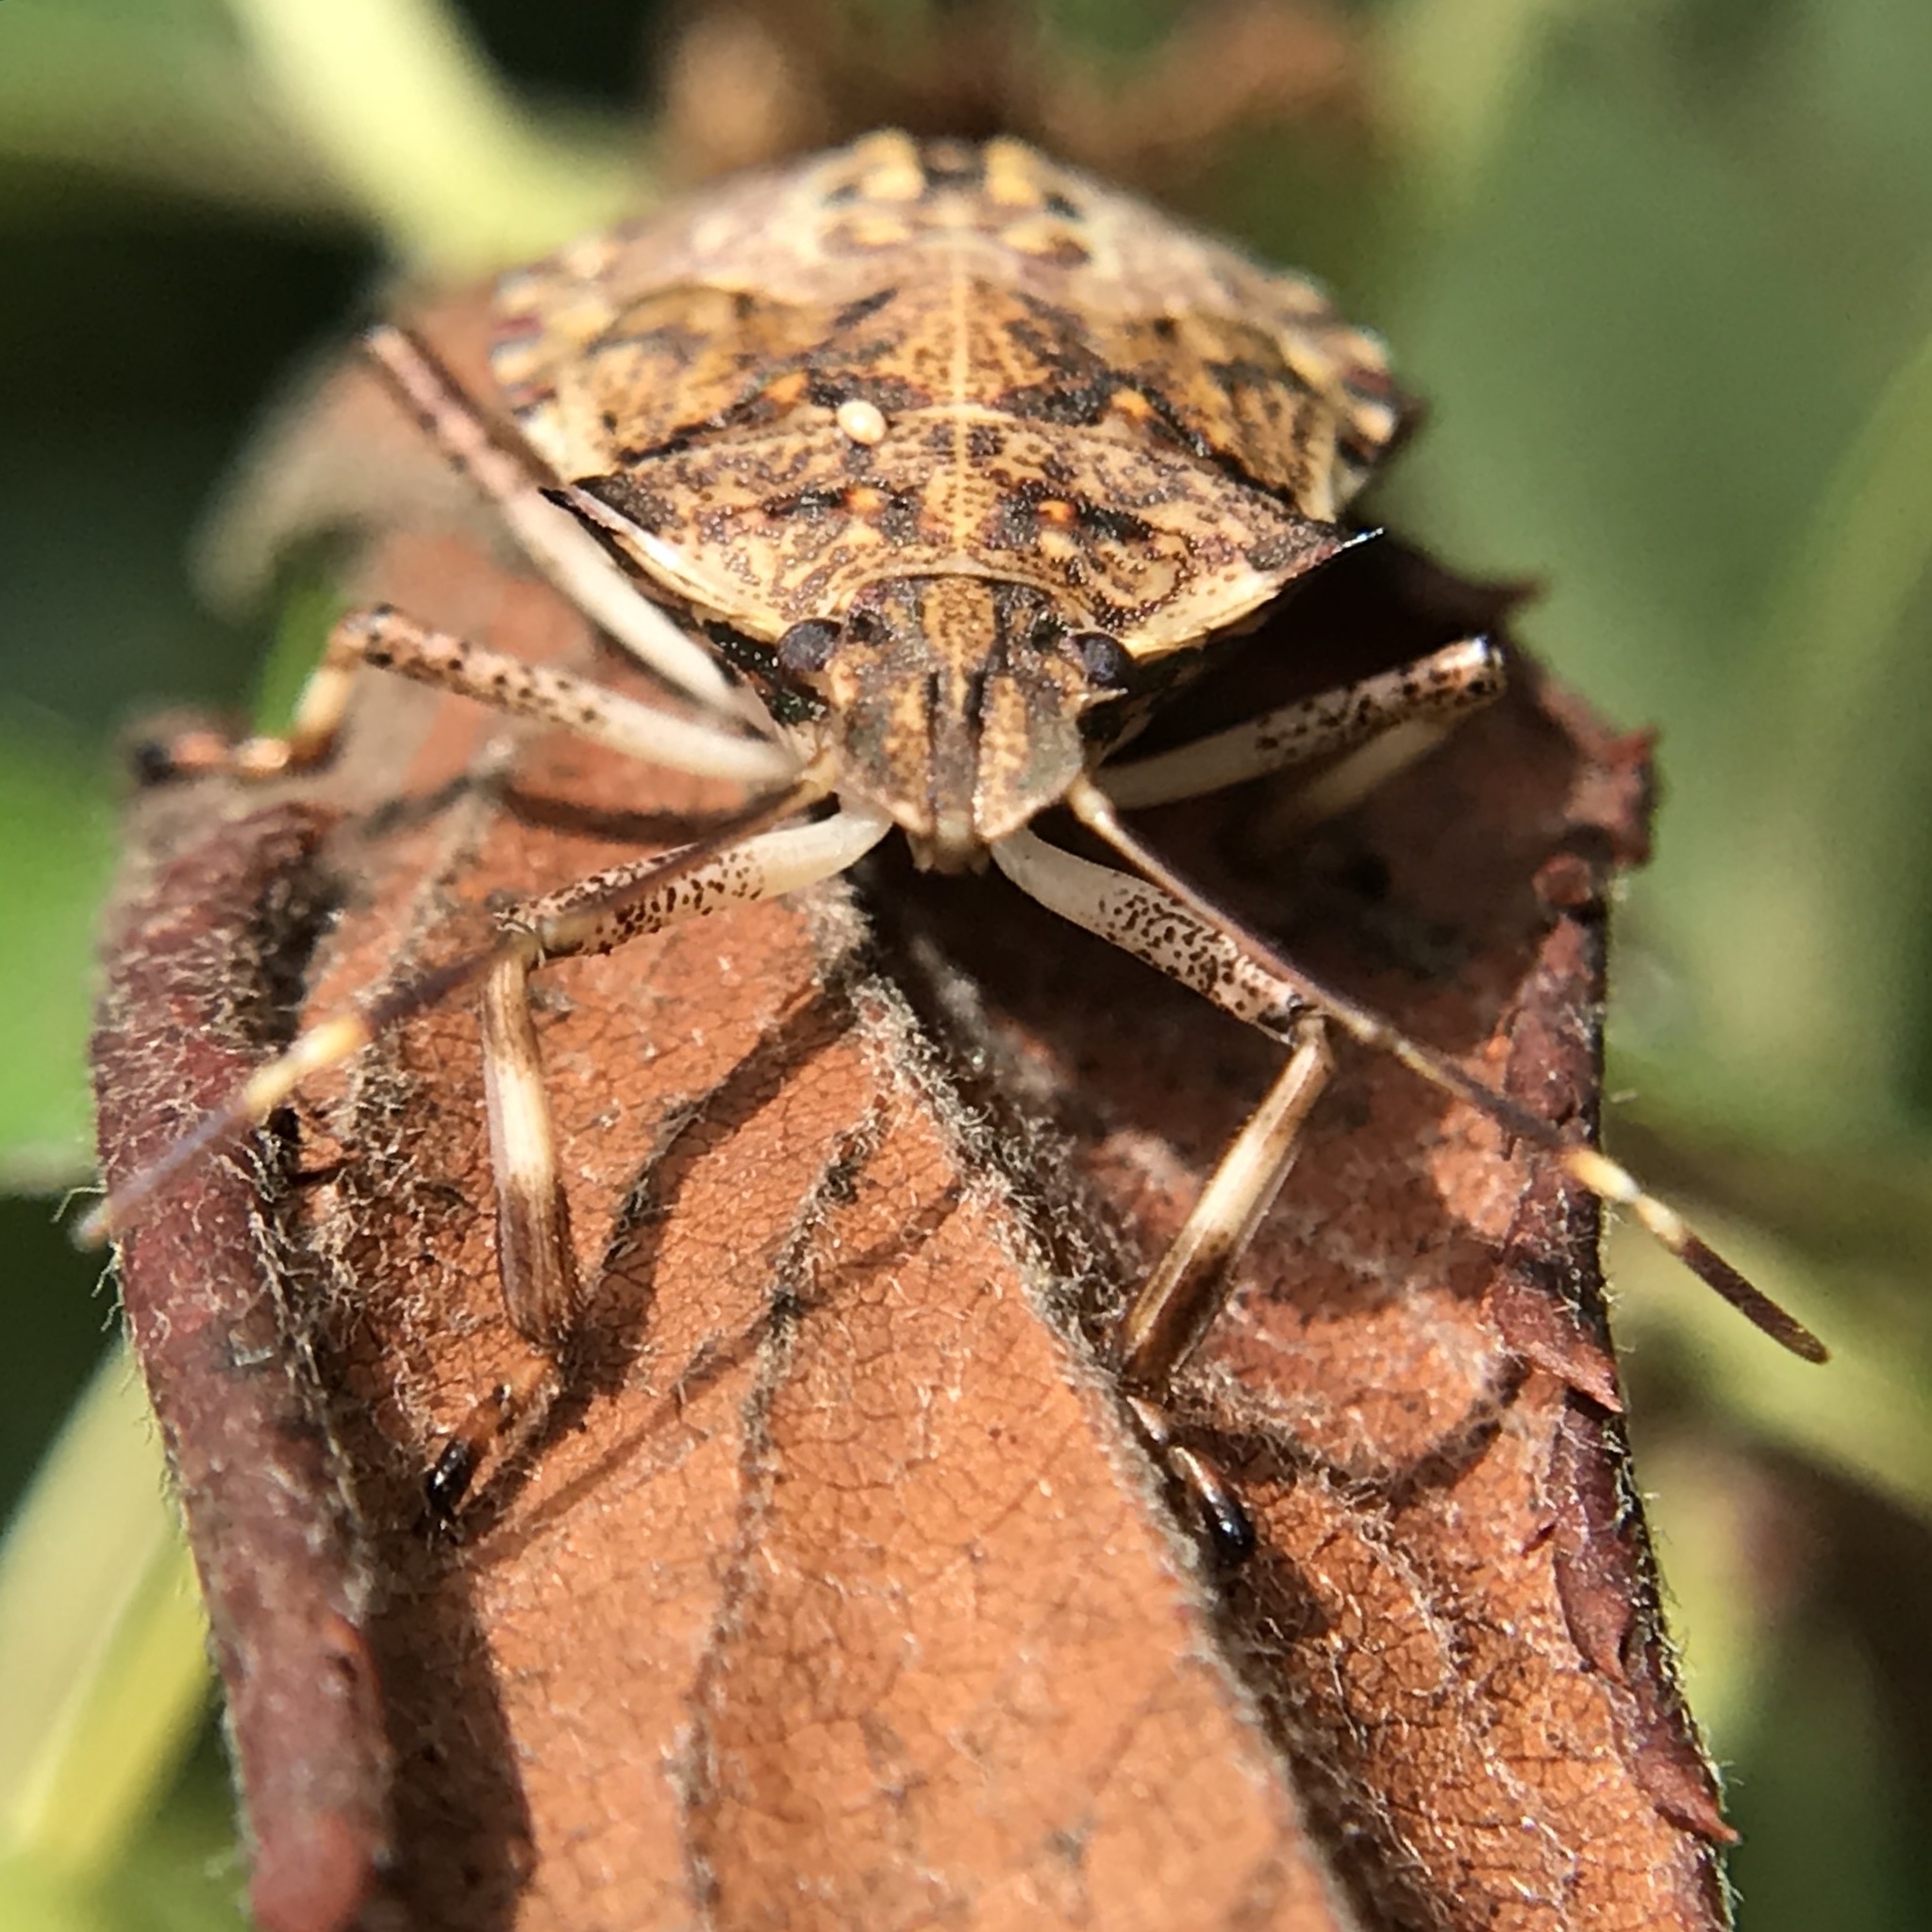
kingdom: Animalia
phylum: Arthropoda
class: Insecta
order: Hemiptera
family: Pentatomidae
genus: Halyomorpha
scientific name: Halyomorpha halys
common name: Brown marmorated stink bug
